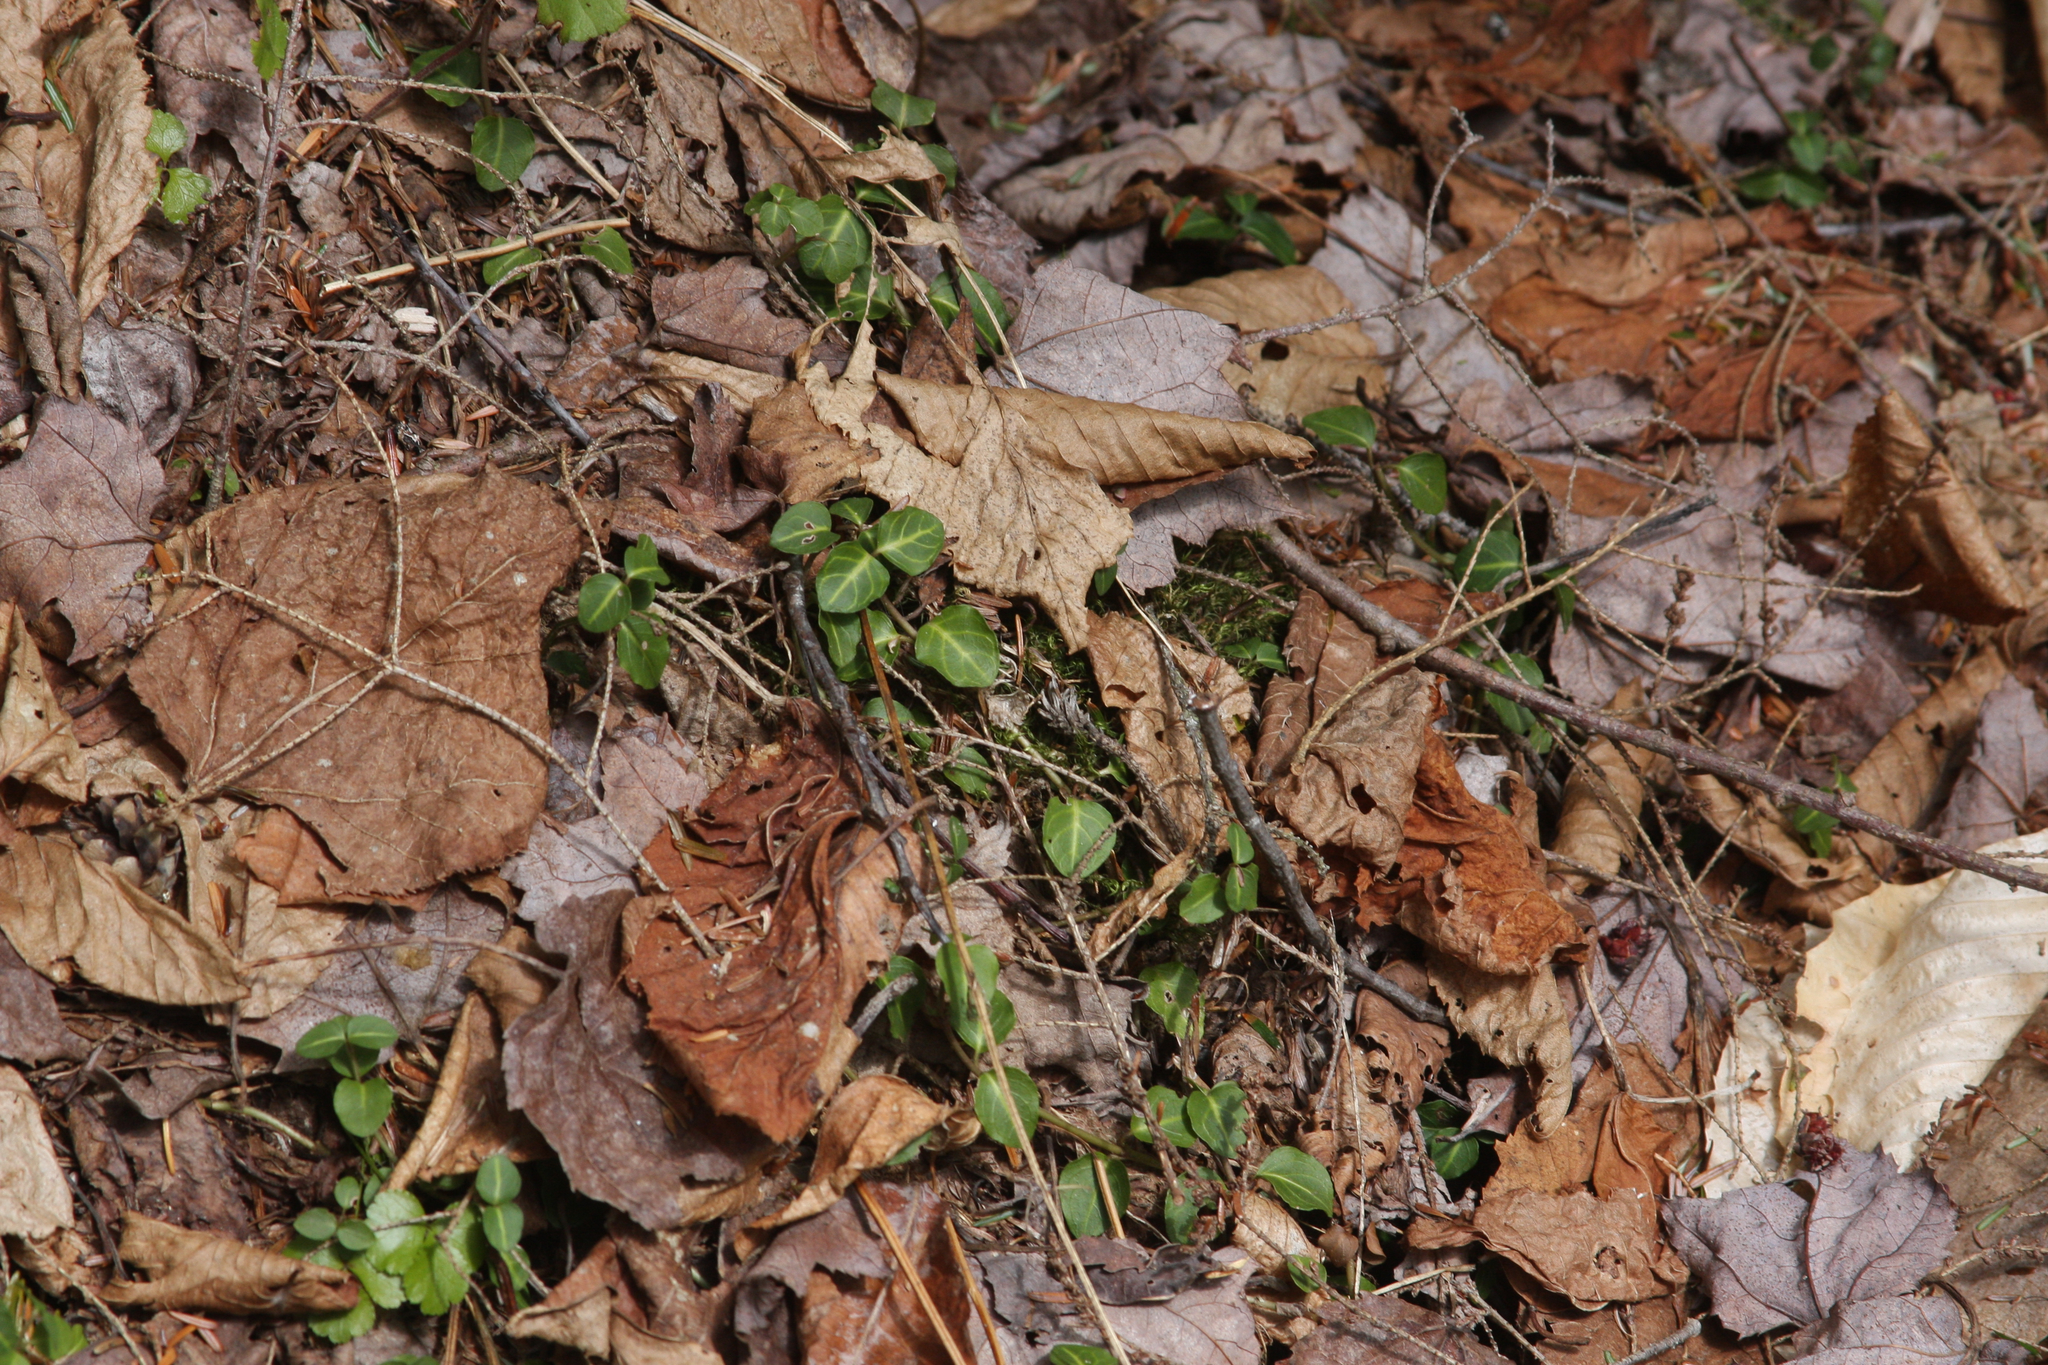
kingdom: Plantae
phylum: Tracheophyta
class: Magnoliopsida
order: Gentianales
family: Rubiaceae
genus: Mitchella
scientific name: Mitchella repens
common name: Partridge-berry
